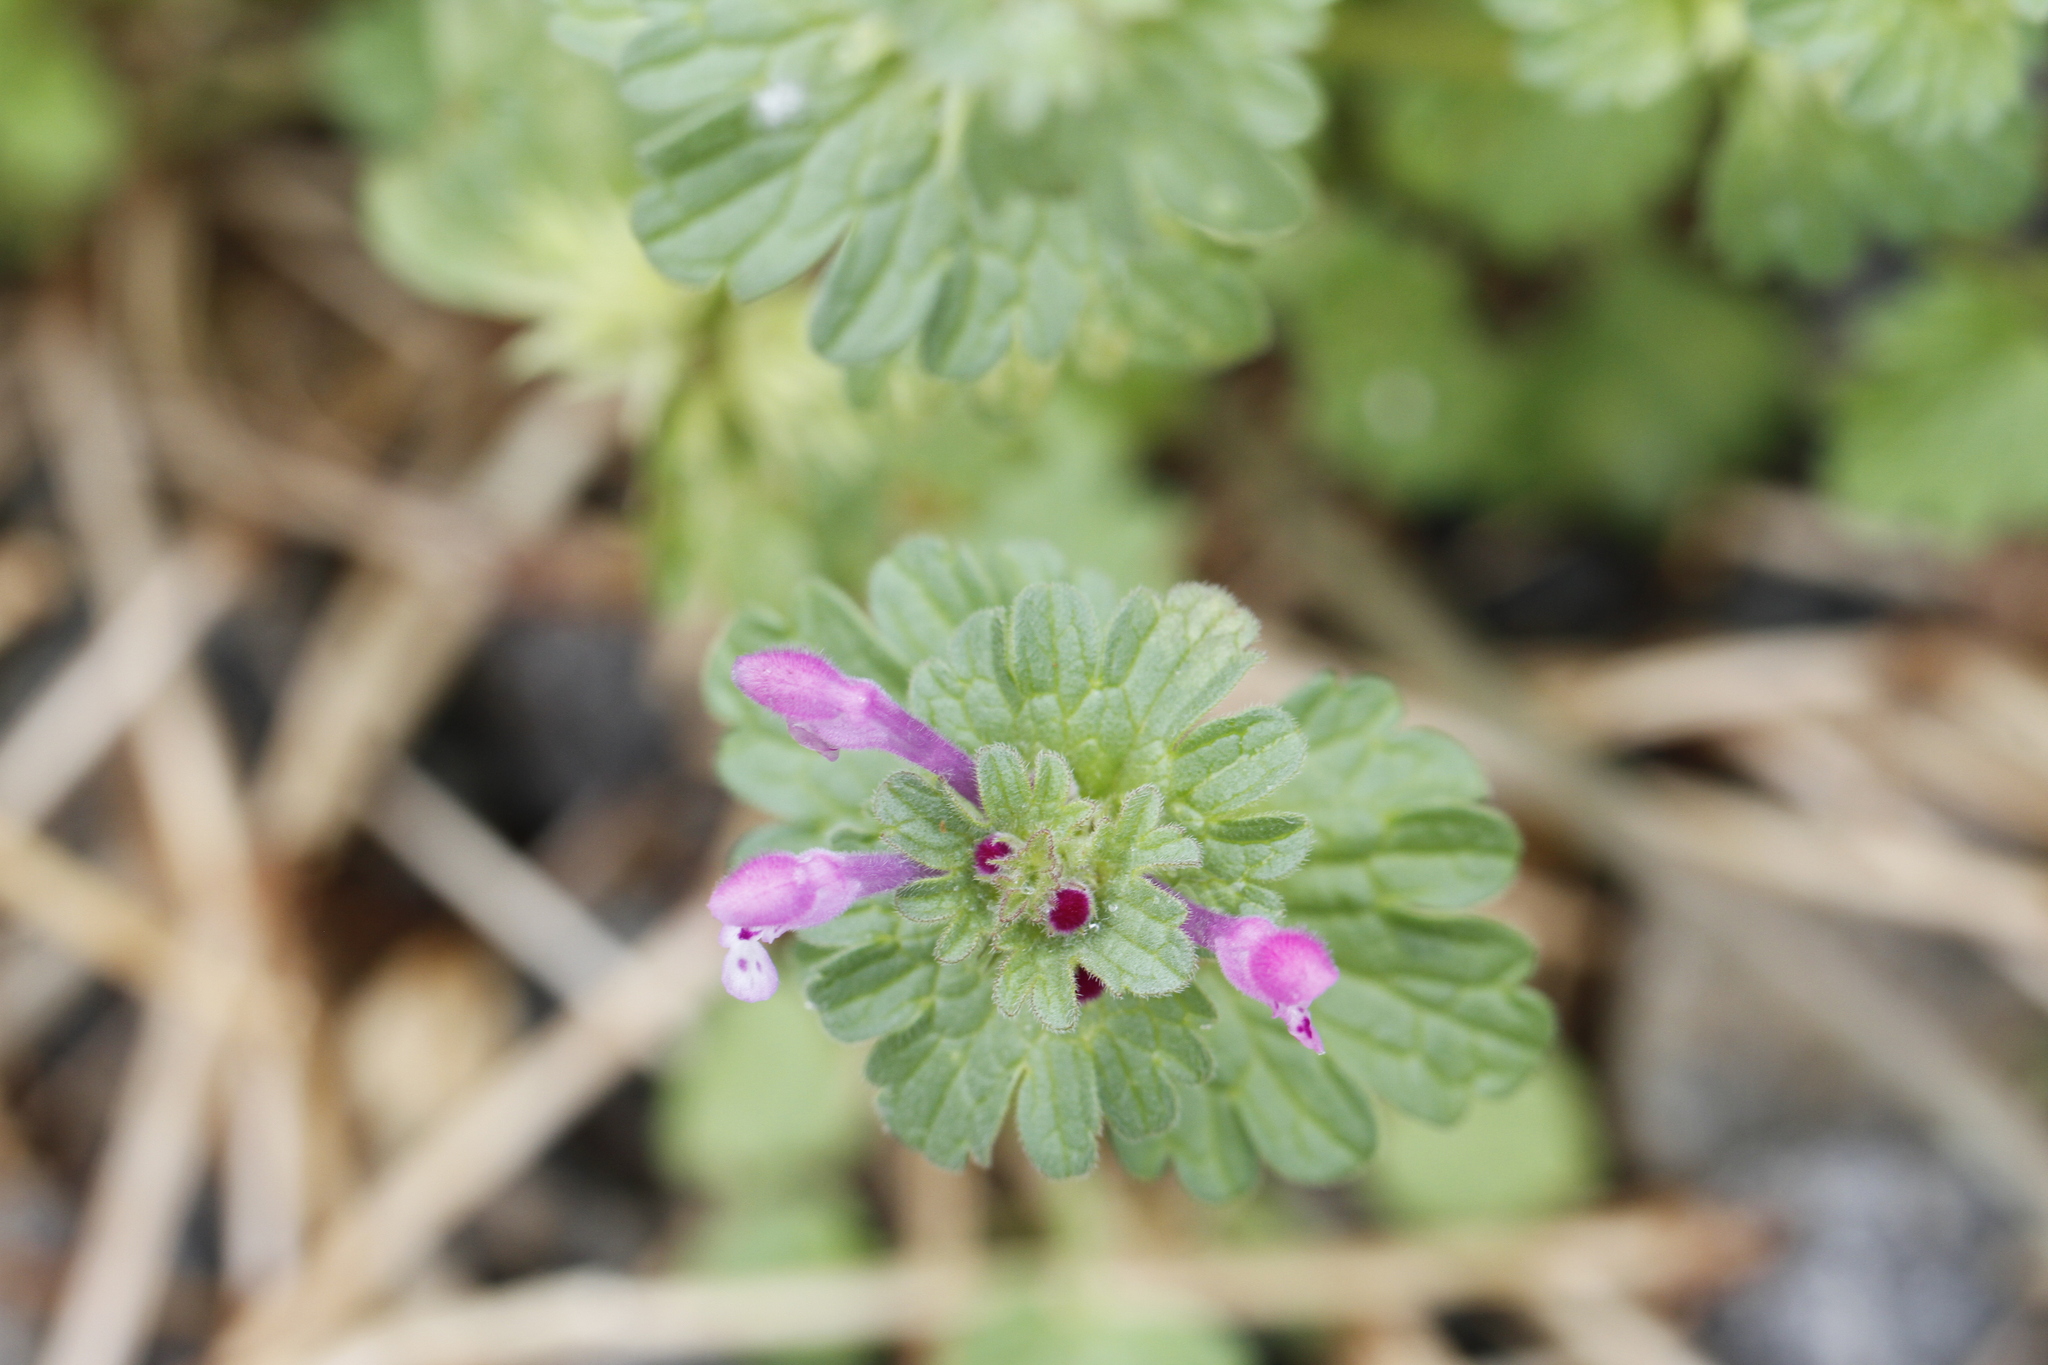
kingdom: Plantae
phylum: Tracheophyta
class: Magnoliopsida
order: Lamiales
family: Lamiaceae
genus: Lamium
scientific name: Lamium amplexicaule
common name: Henbit dead-nettle
